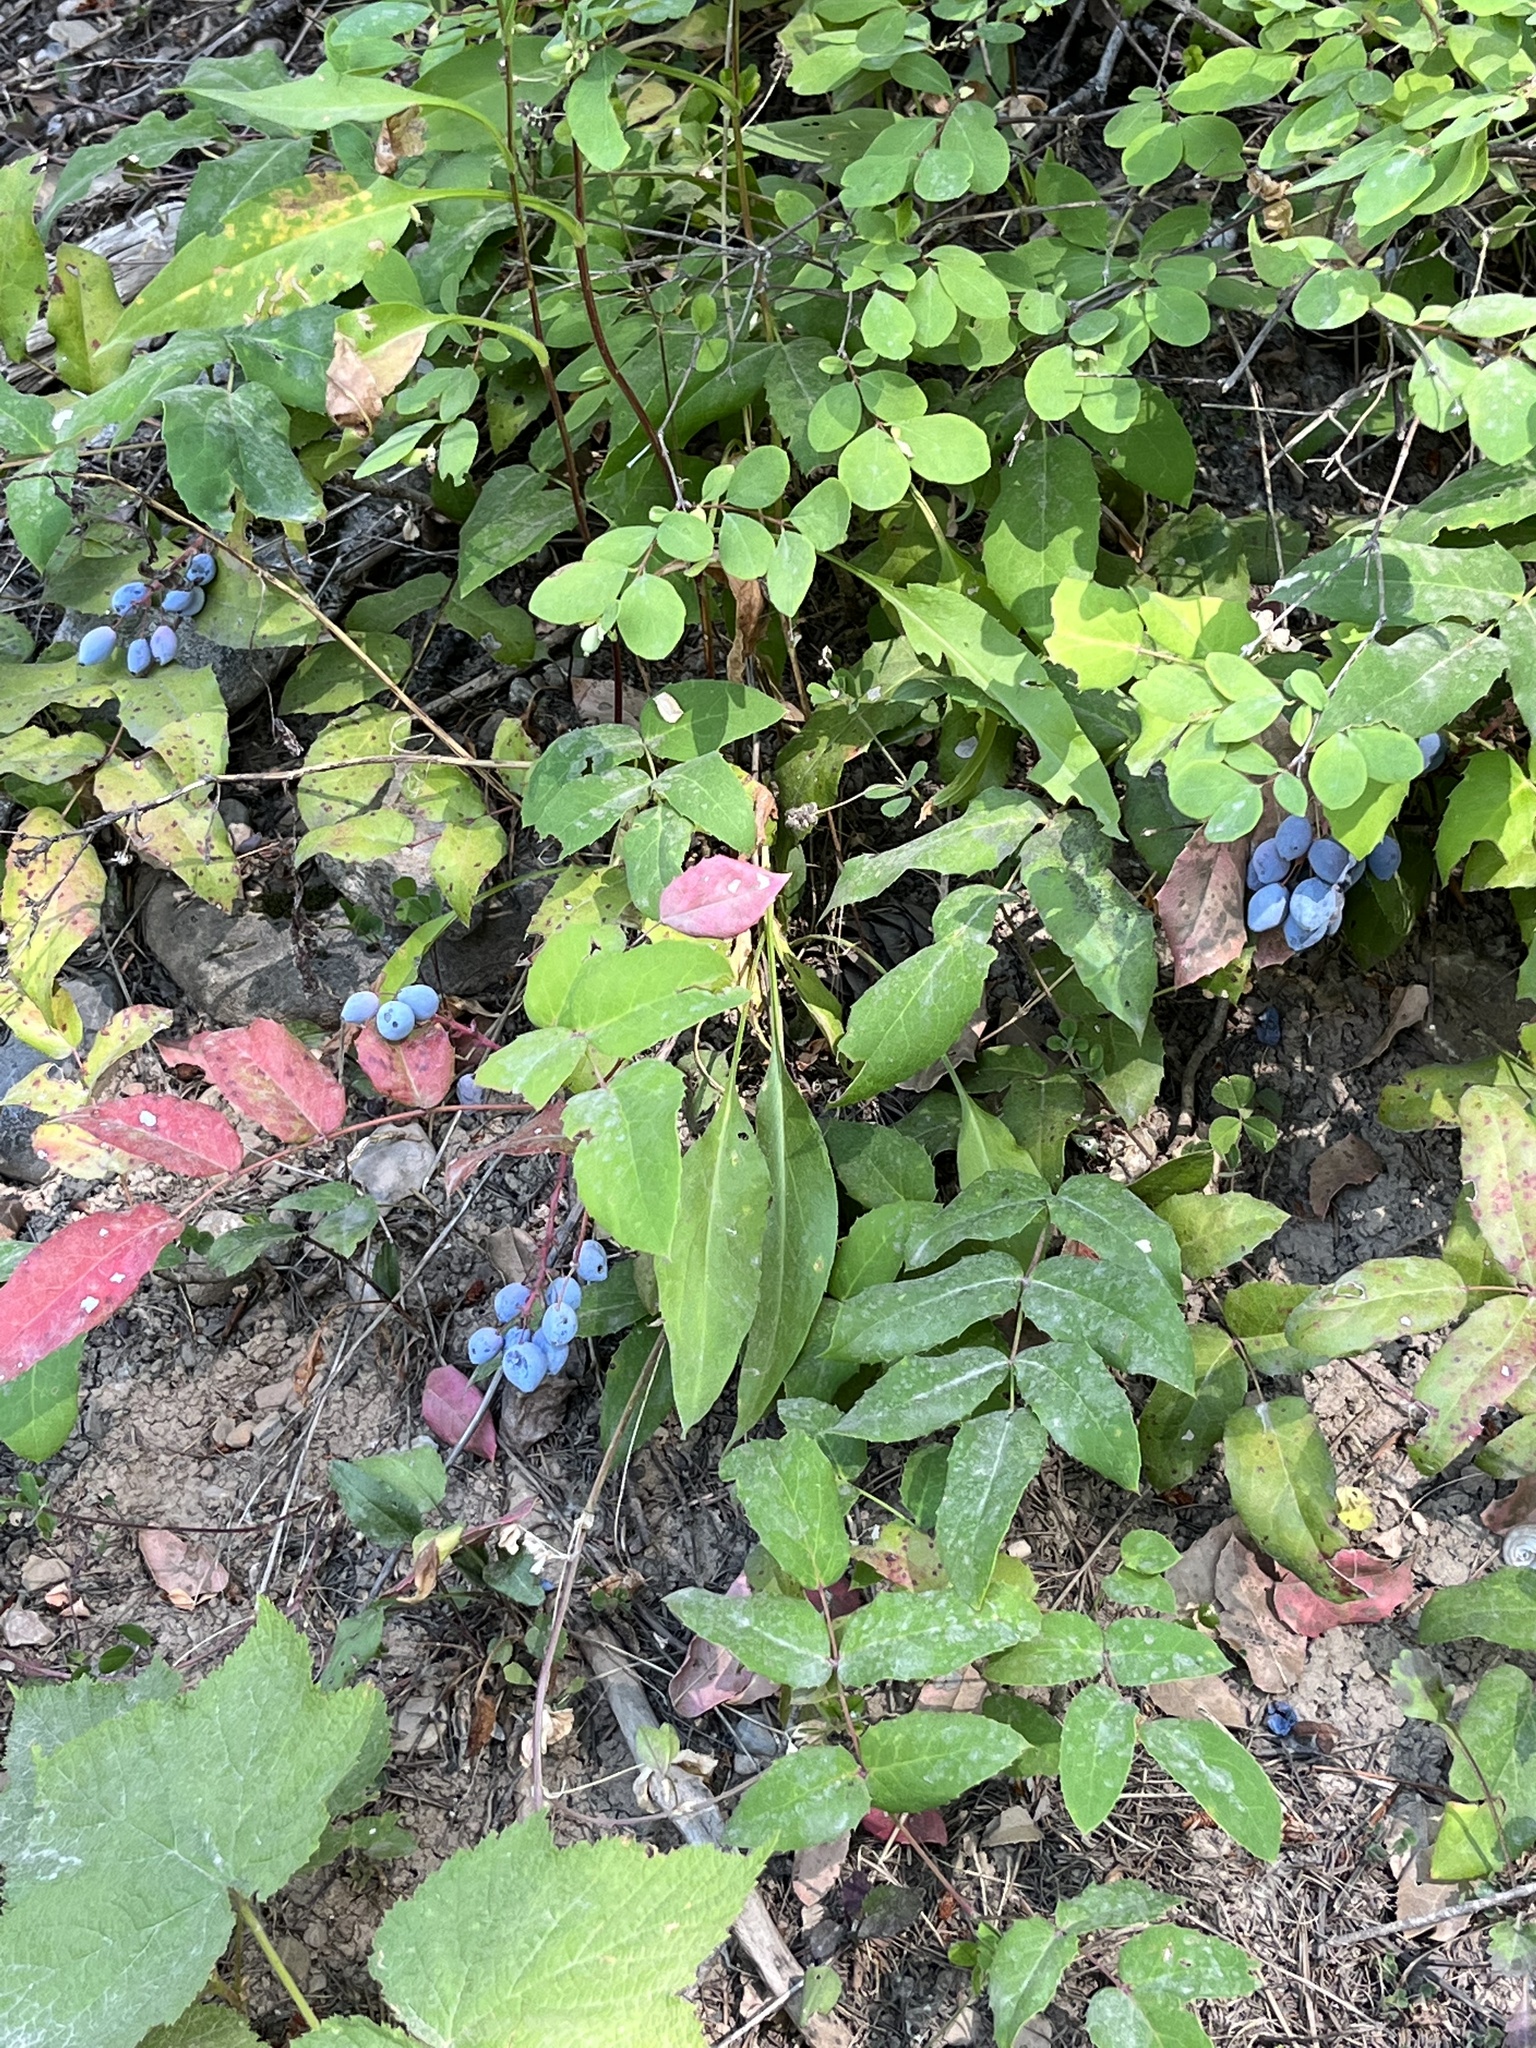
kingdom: Plantae
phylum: Tracheophyta
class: Magnoliopsida
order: Ranunculales
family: Berberidaceae
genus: Mahonia
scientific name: Mahonia repens
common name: Creeping oregon-grape
